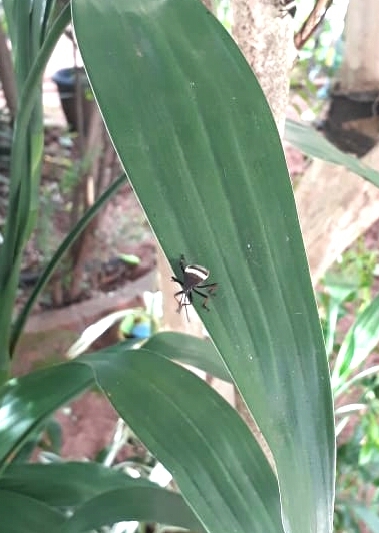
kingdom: Animalia
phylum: Arthropoda
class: Insecta
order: Hemiptera
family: Largidae
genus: Largus
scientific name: Largus balteatus
